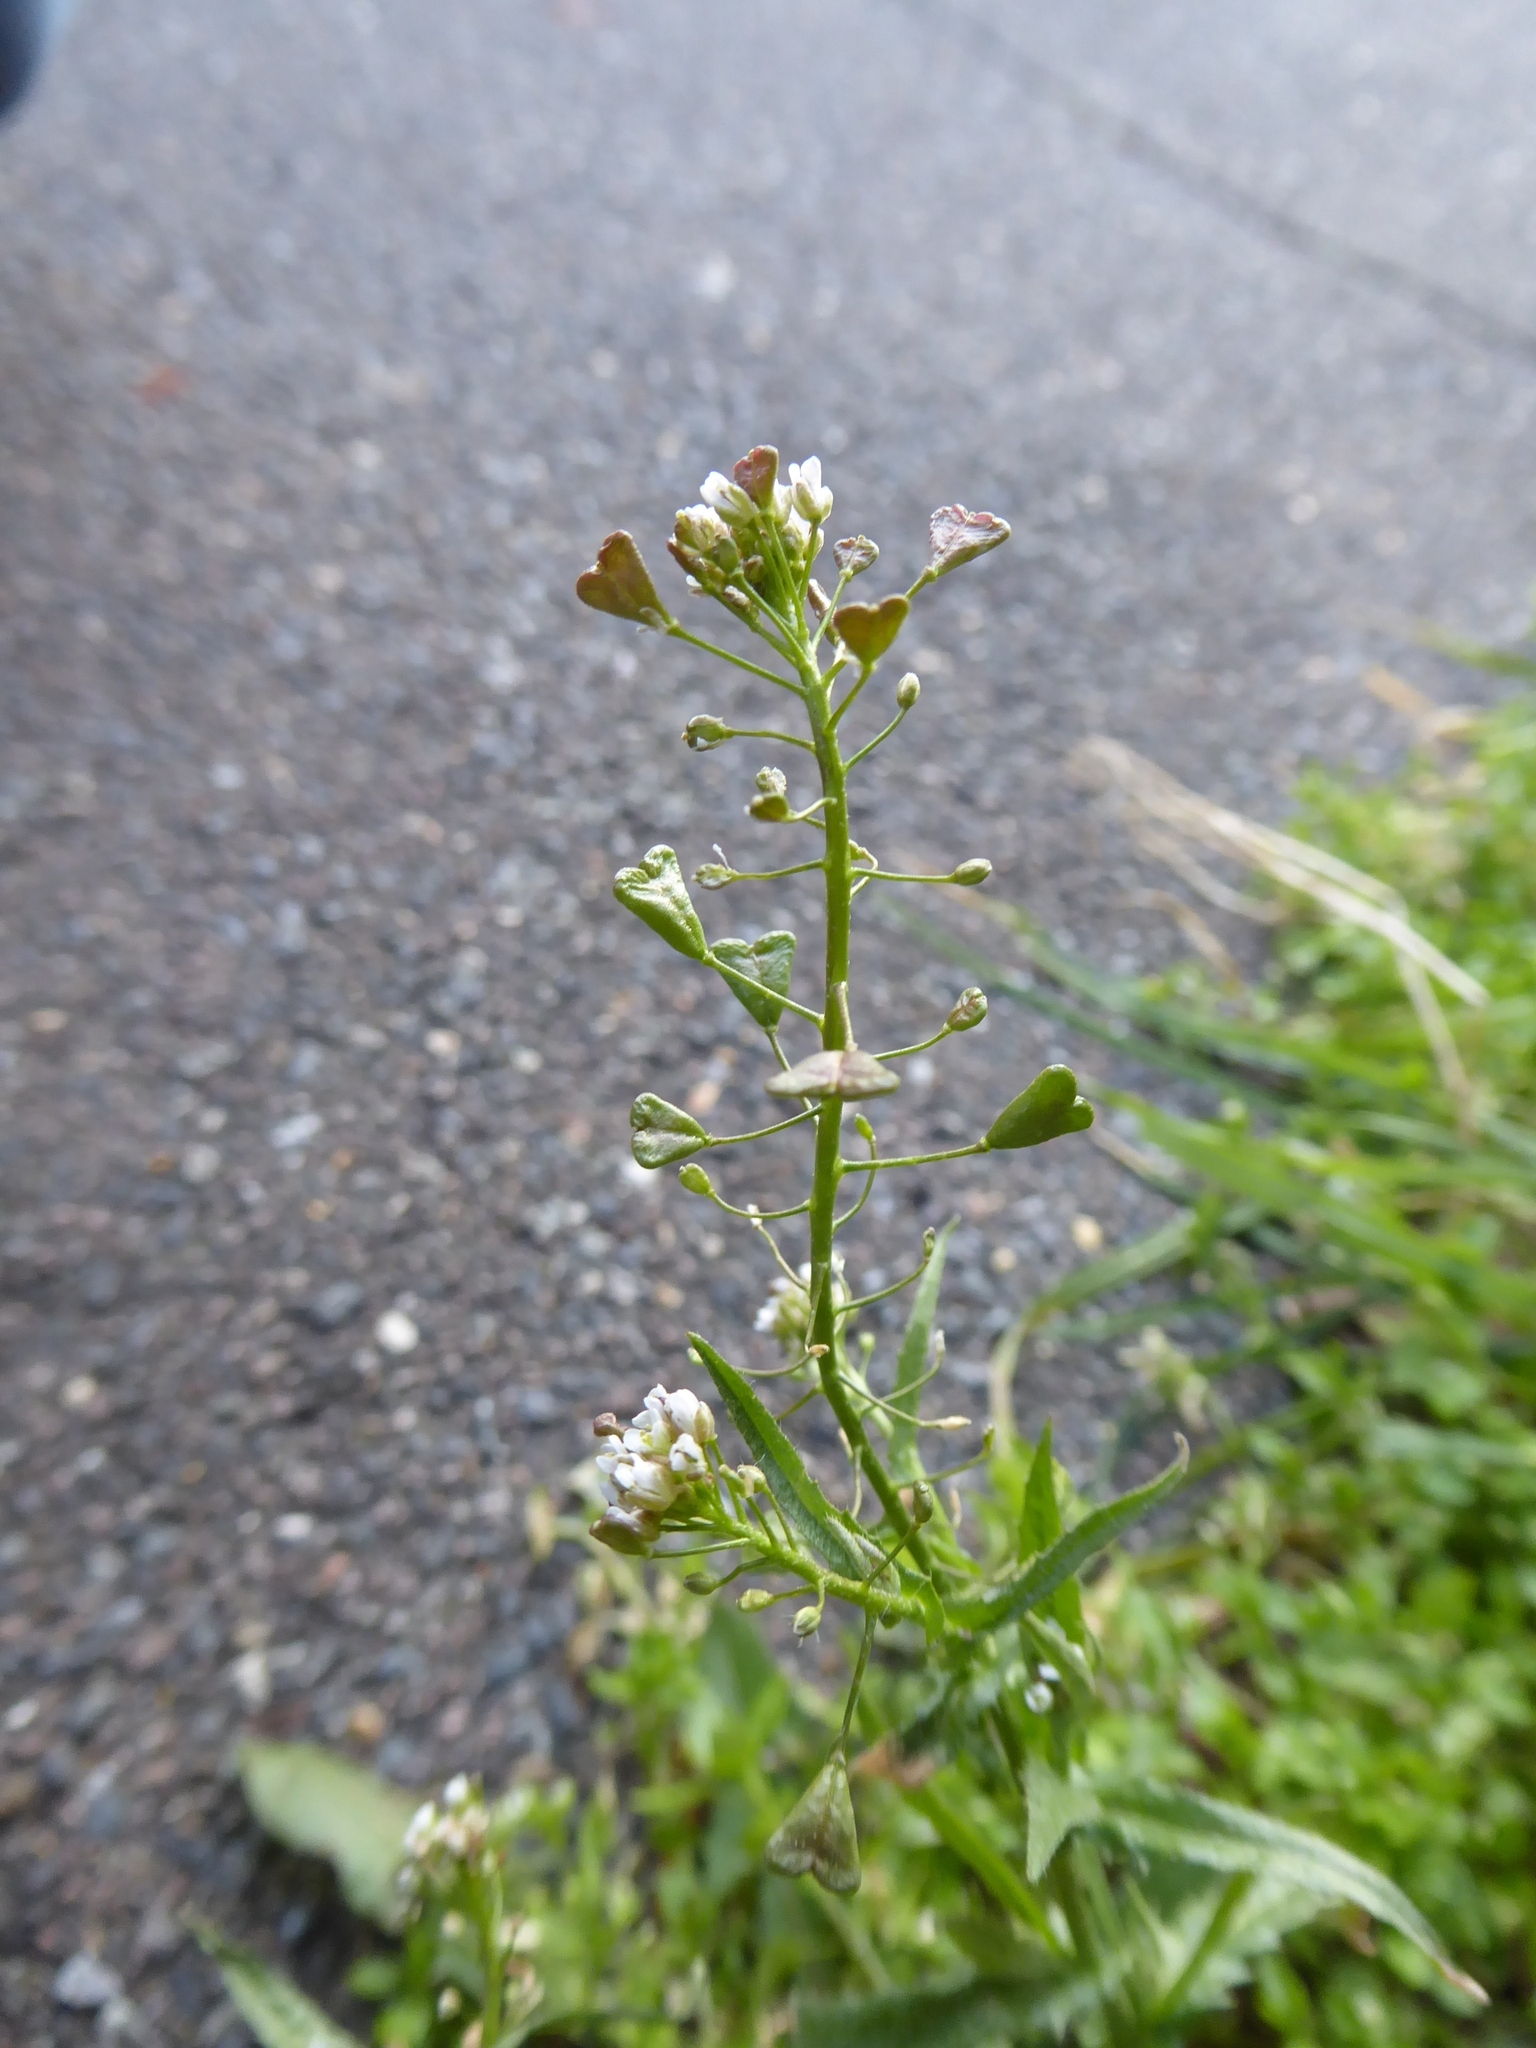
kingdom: Plantae
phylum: Tracheophyta
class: Magnoliopsida
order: Brassicales
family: Brassicaceae
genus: Capsella
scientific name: Capsella bursa-pastoris
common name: Shepherd's purse
